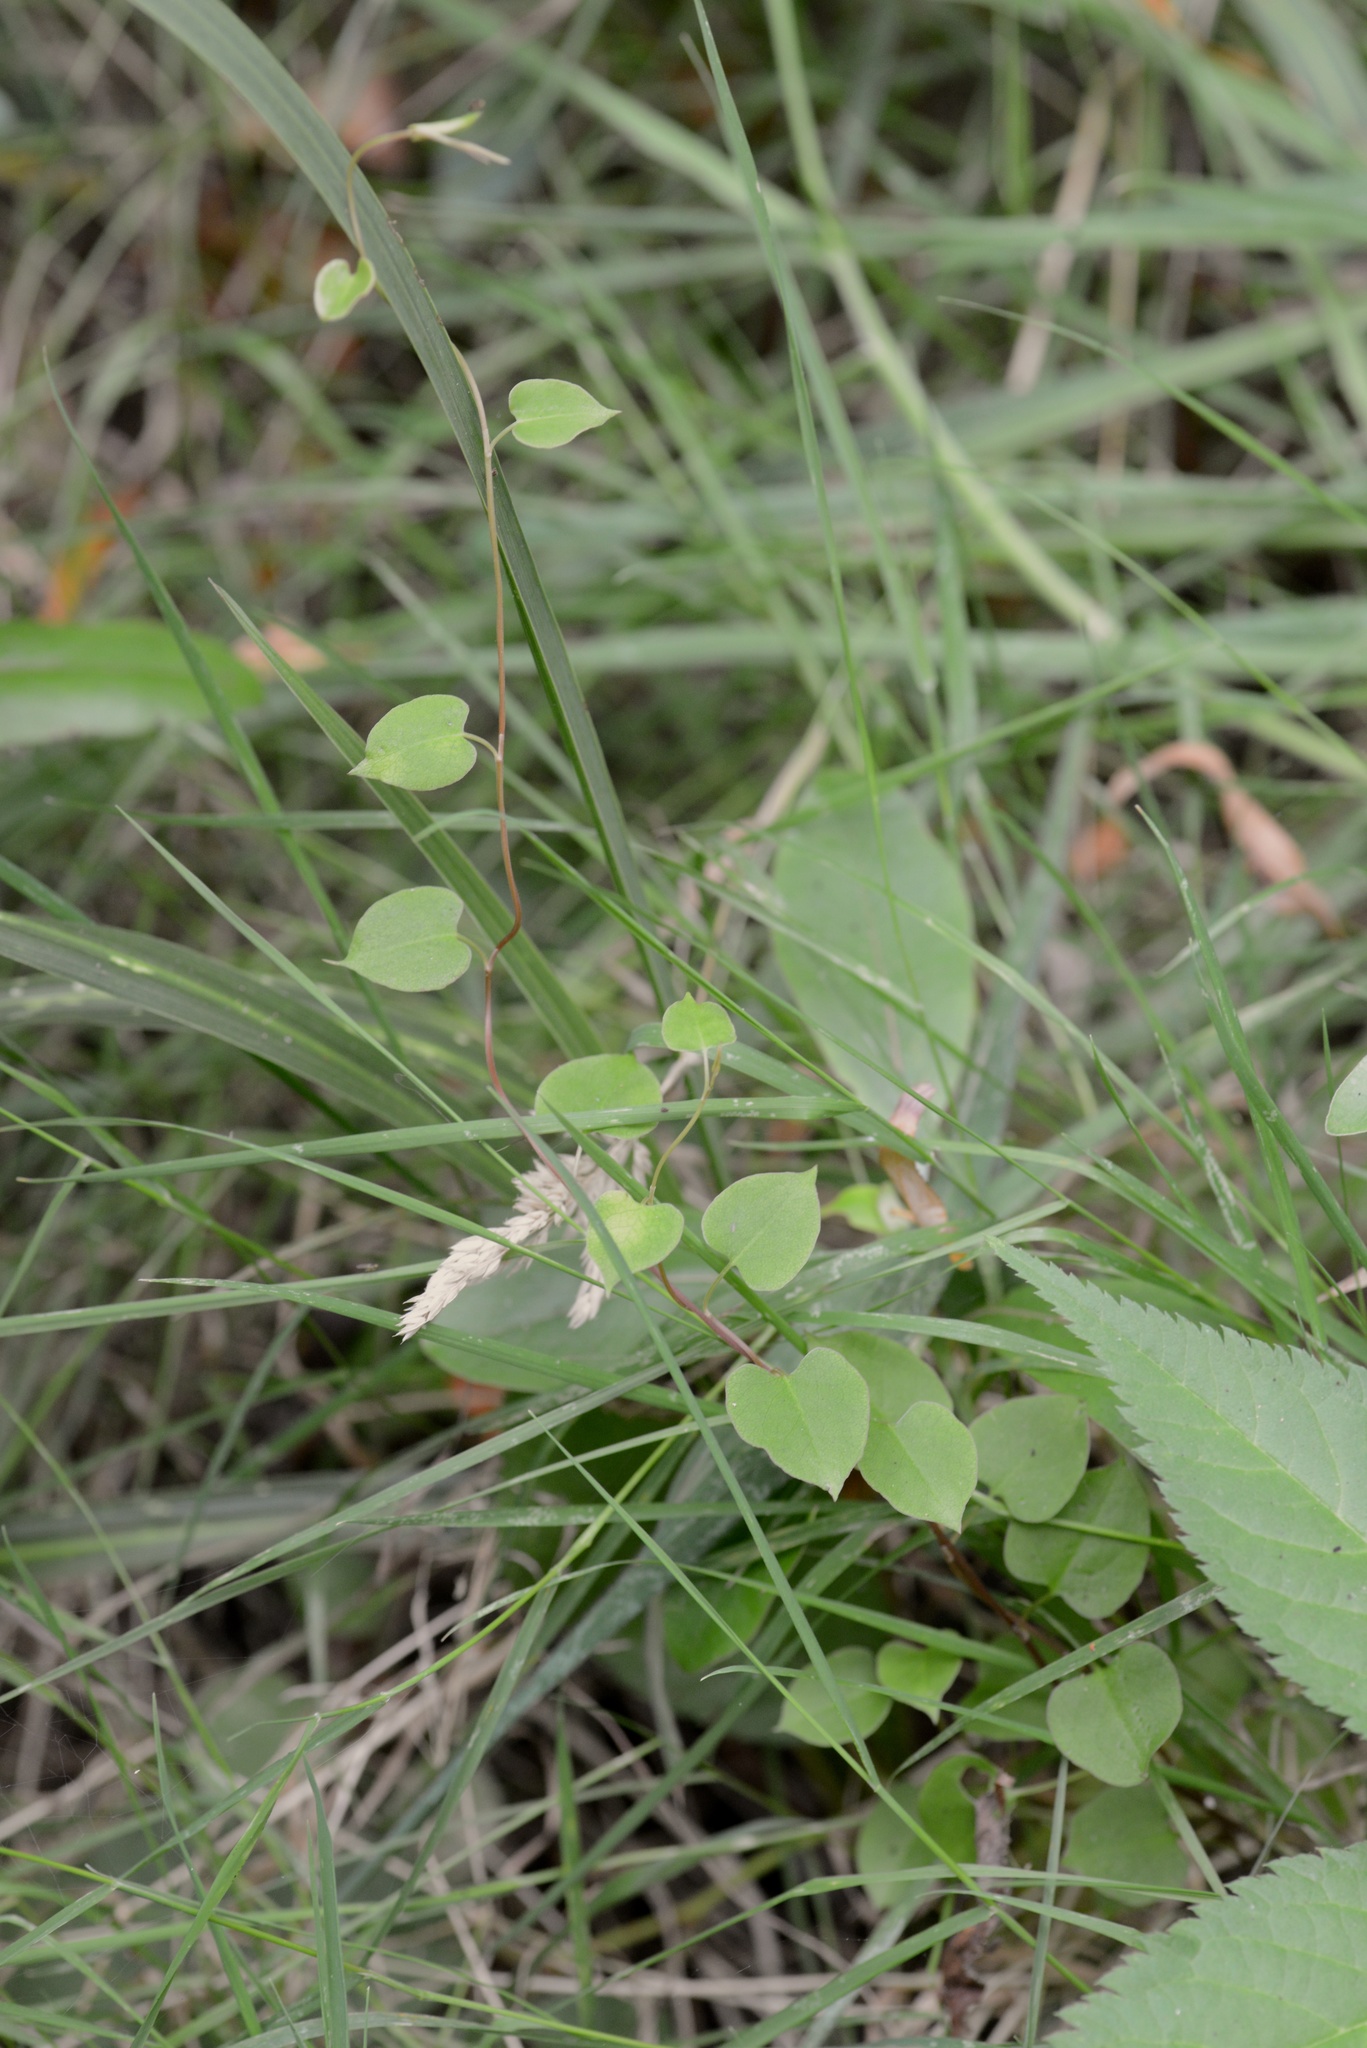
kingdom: Plantae
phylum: Tracheophyta
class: Magnoliopsida
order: Caryophyllales
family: Polygonaceae
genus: Muehlenbeckia
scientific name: Muehlenbeckia australis
